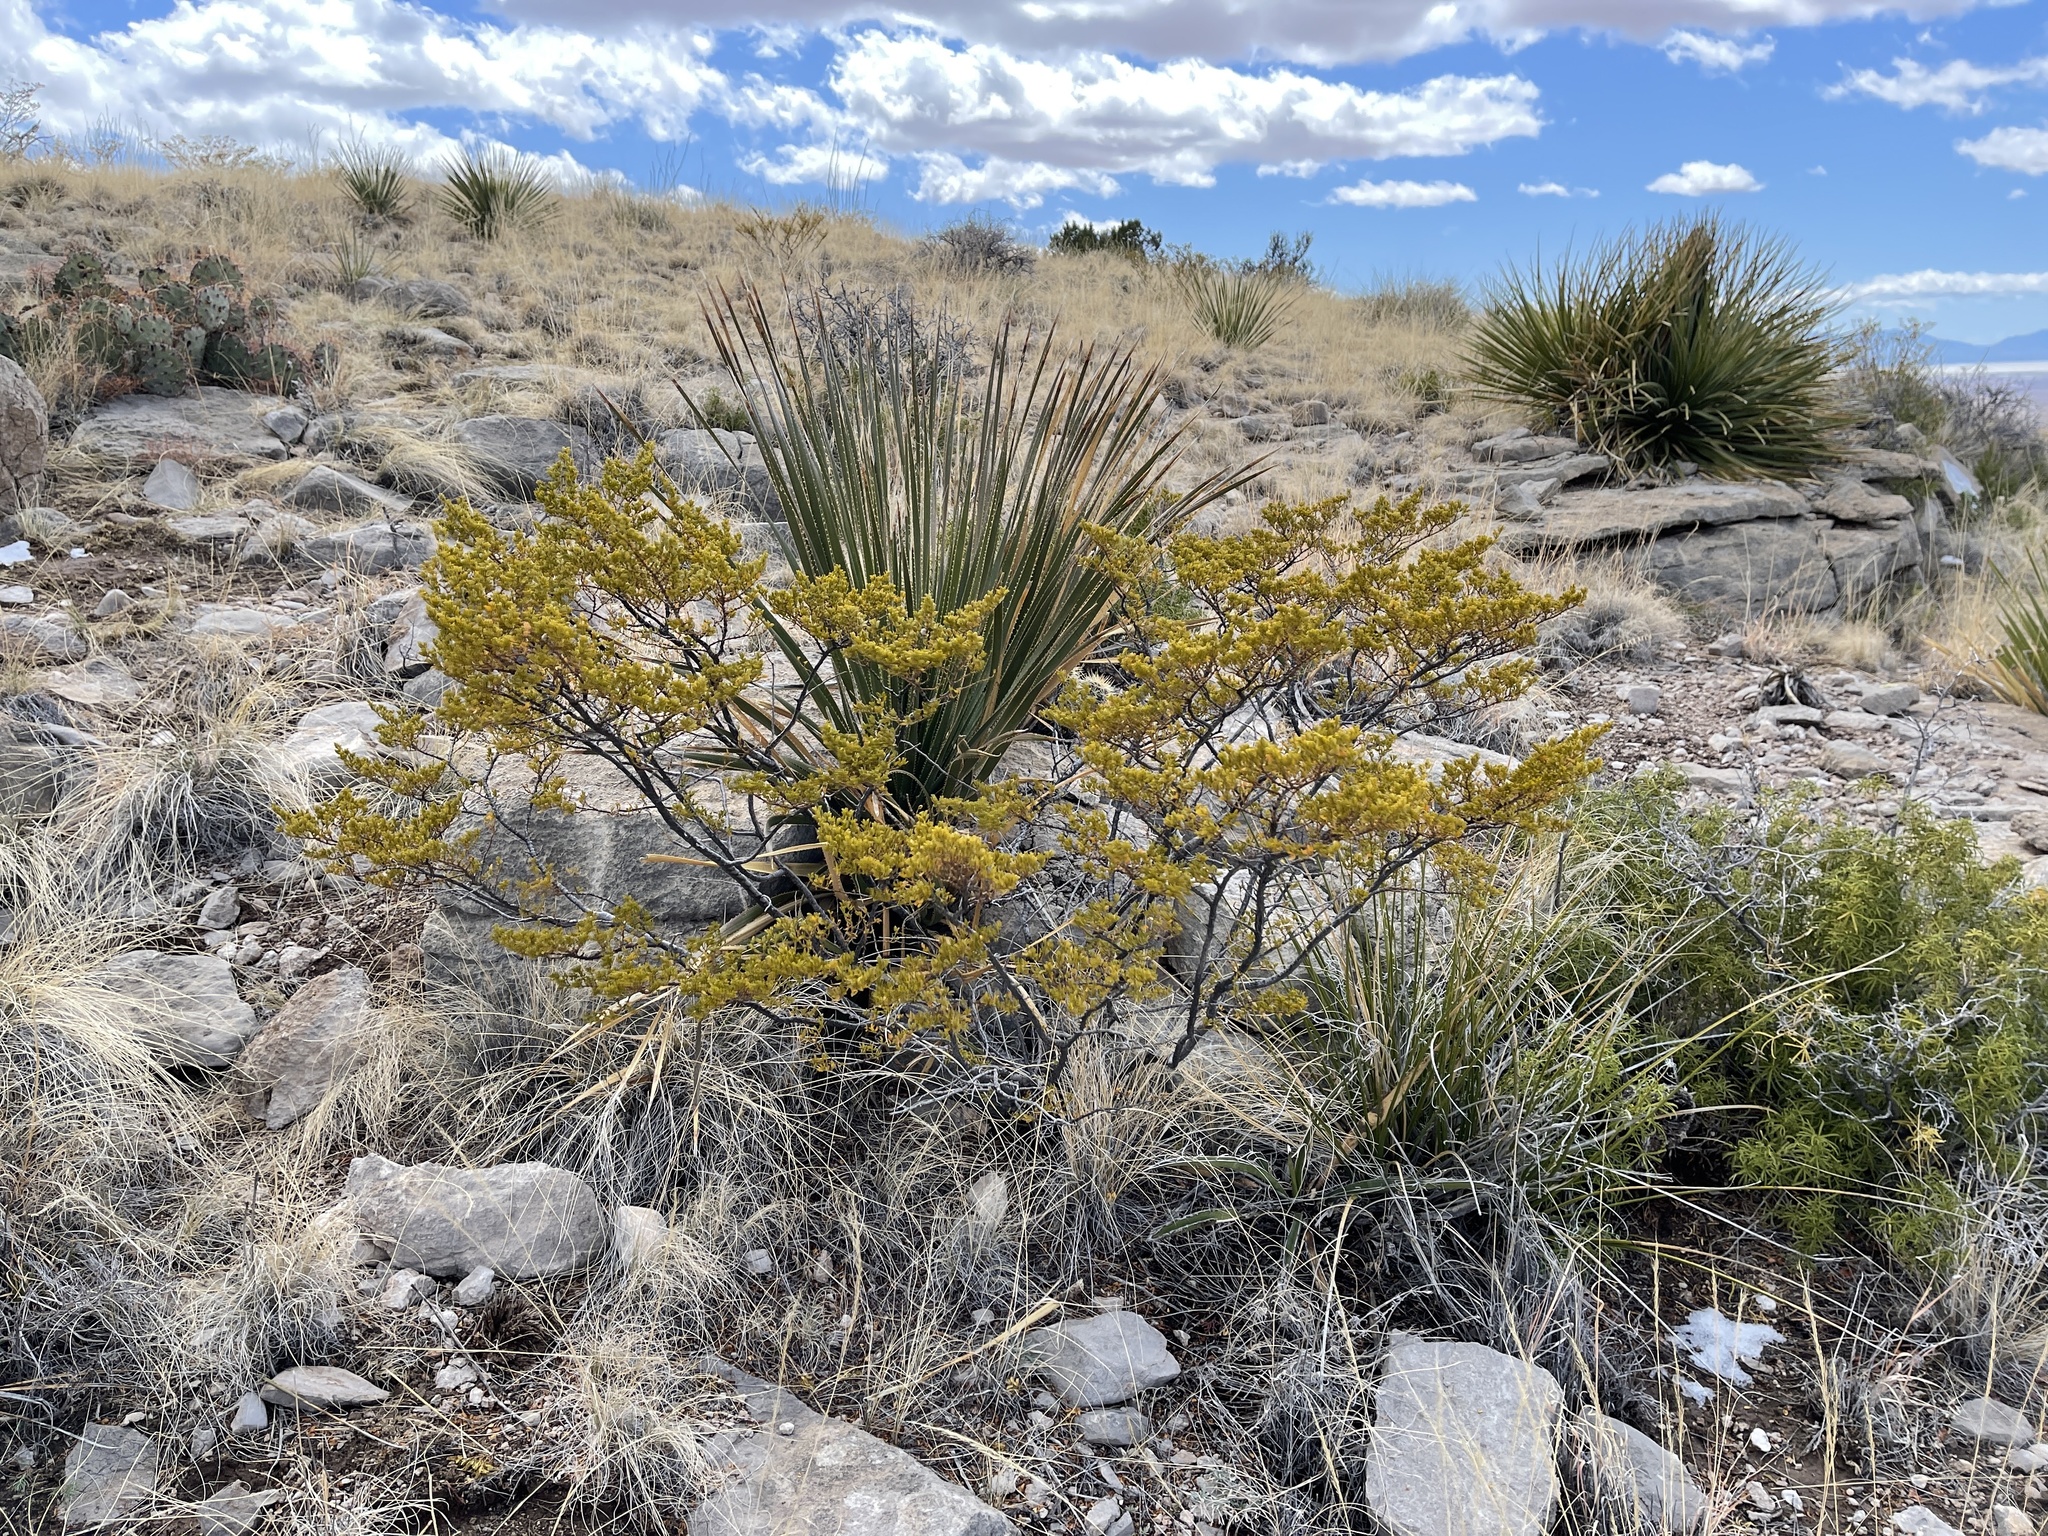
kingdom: Plantae
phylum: Tracheophyta
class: Magnoliopsida
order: Zygophyllales
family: Zygophyllaceae
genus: Larrea
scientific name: Larrea tridentata
